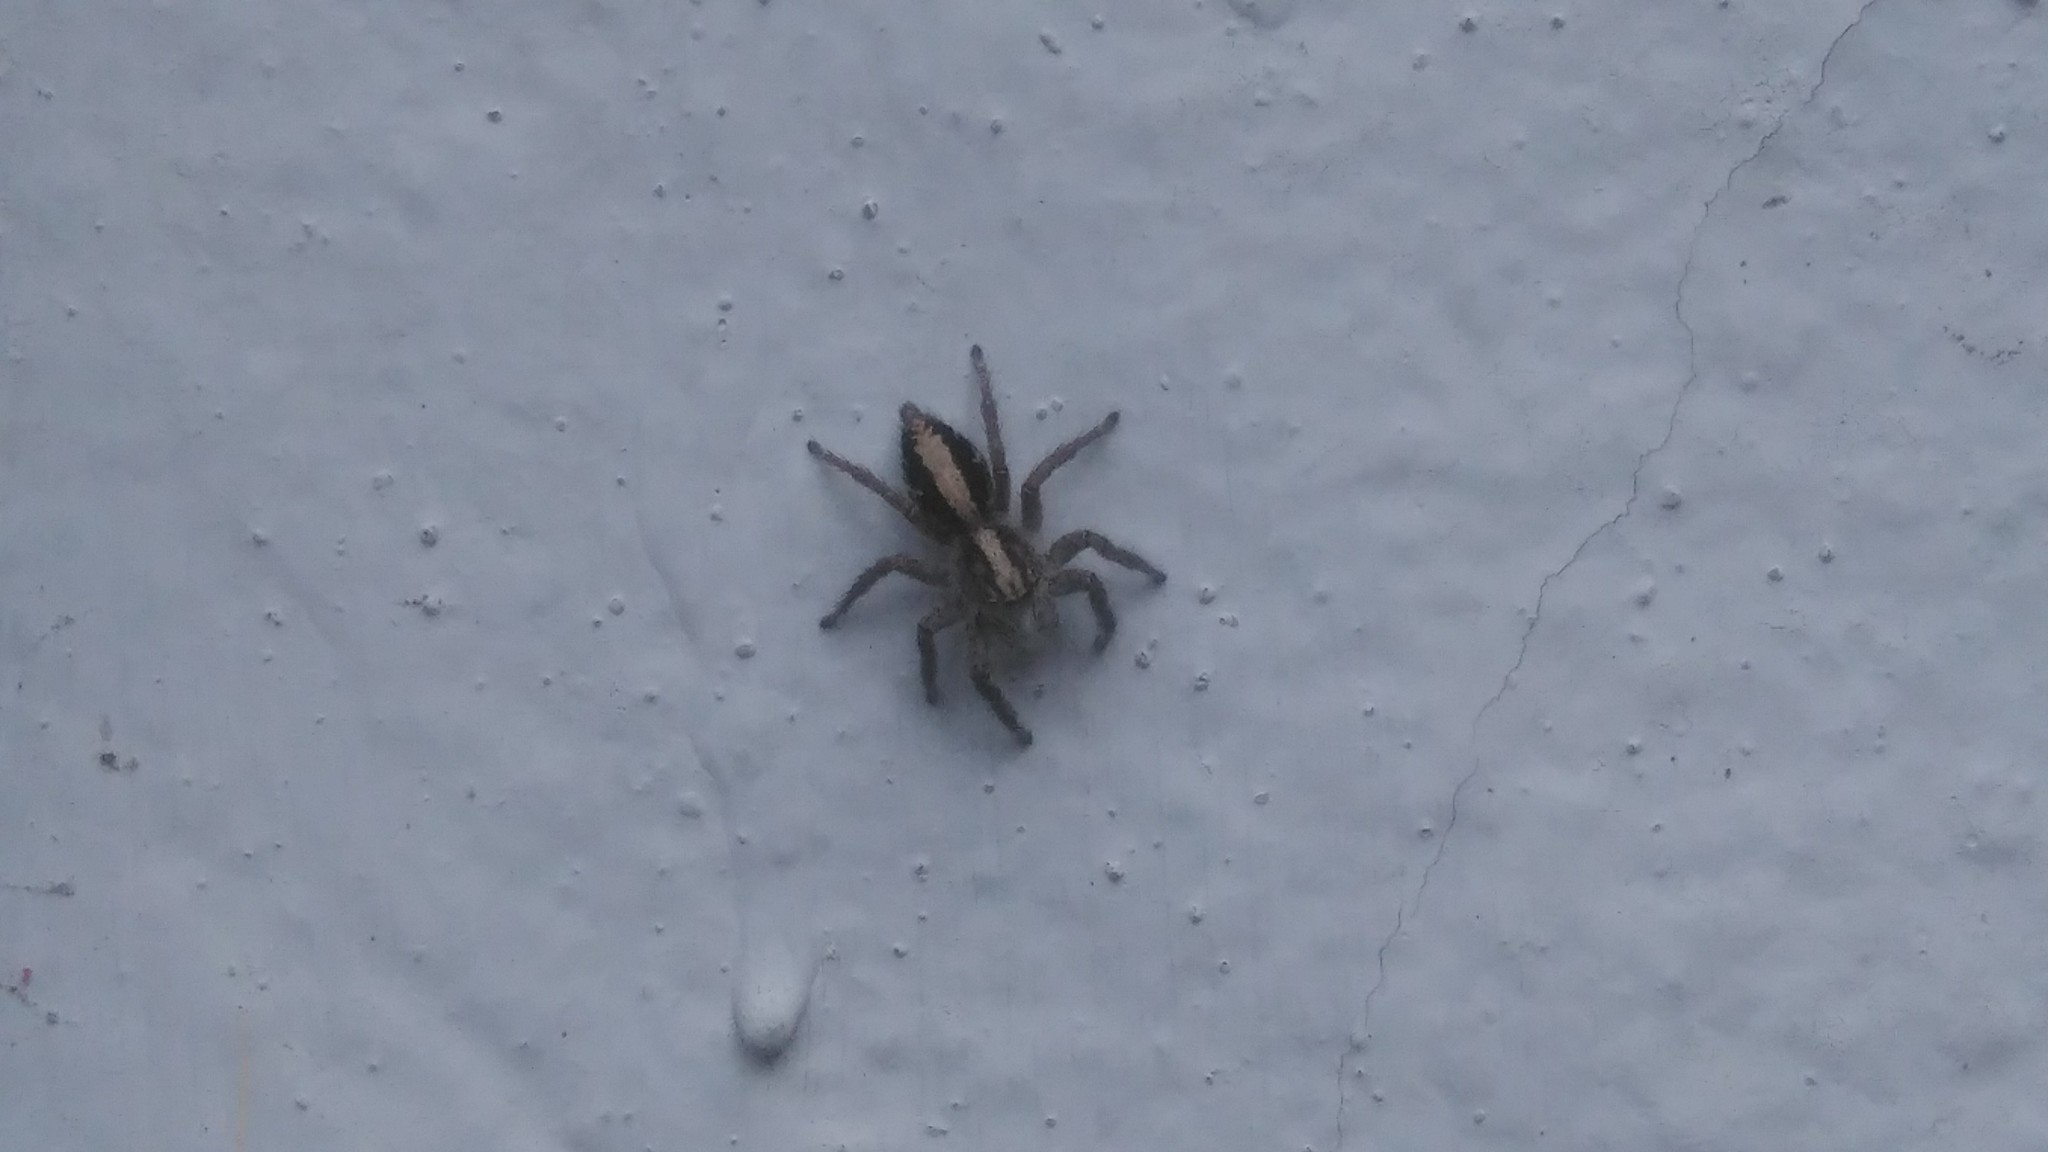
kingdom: Animalia
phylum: Arthropoda
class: Arachnida
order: Araneae
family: Salticidae
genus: Megafreya
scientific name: Megafreya sutrix
